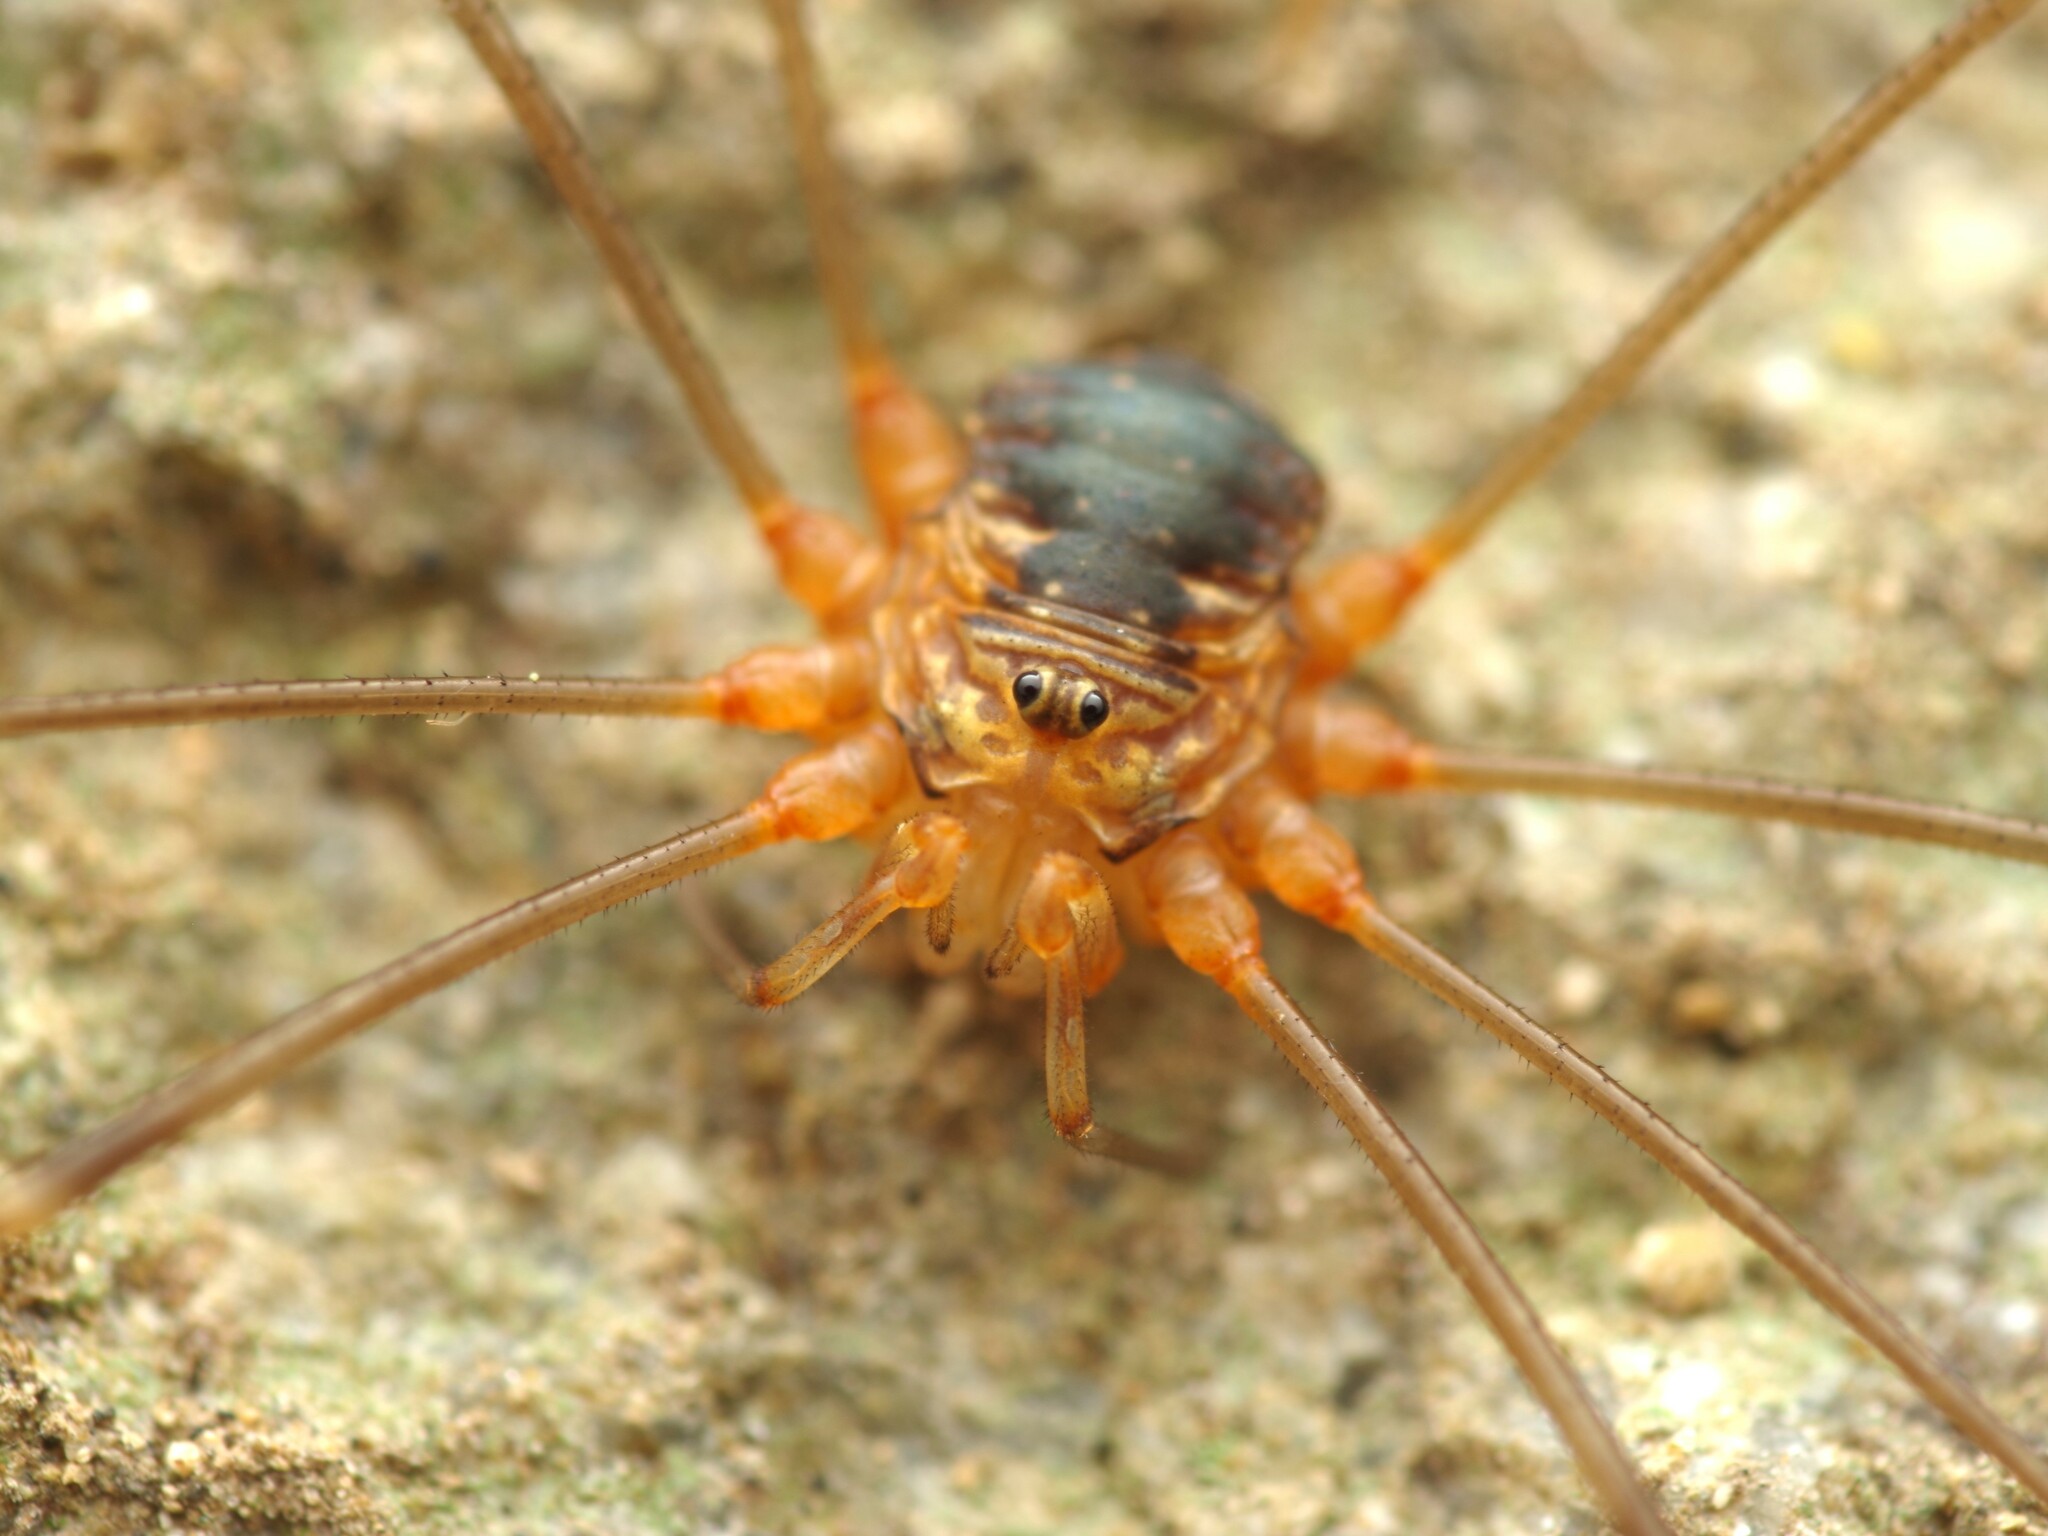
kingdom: Animalia
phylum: Arthropoda
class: Arachnida
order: Opiliones
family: Phalangiidae
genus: Dicranopalpus
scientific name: Dicranopalpus catariegensis
